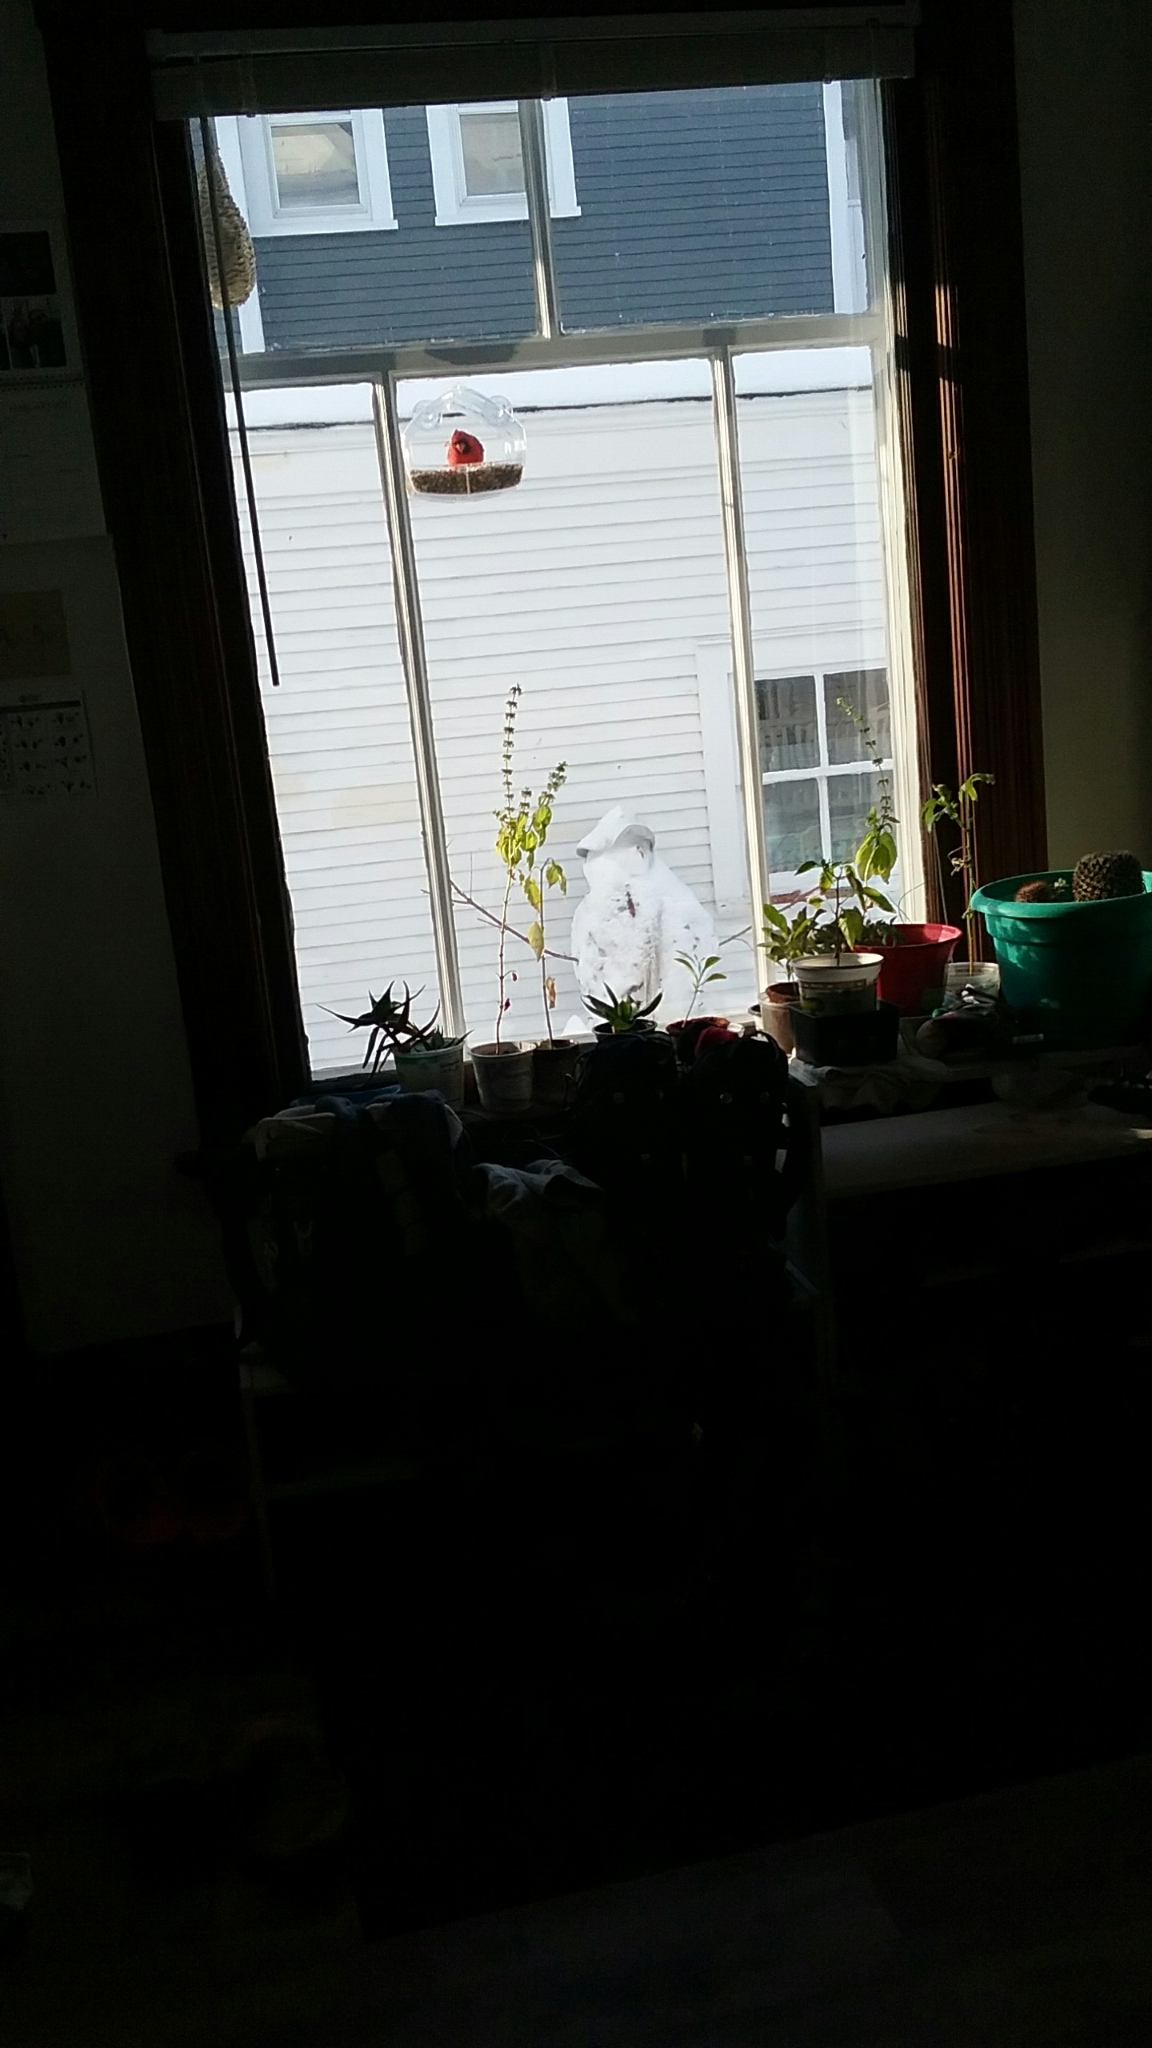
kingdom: Animalia
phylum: Chordata
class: Aves
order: Passeriformes
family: Cardinalidae
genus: Cardinalis
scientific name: Cardinalis cardinalis
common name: Northern cardinal
